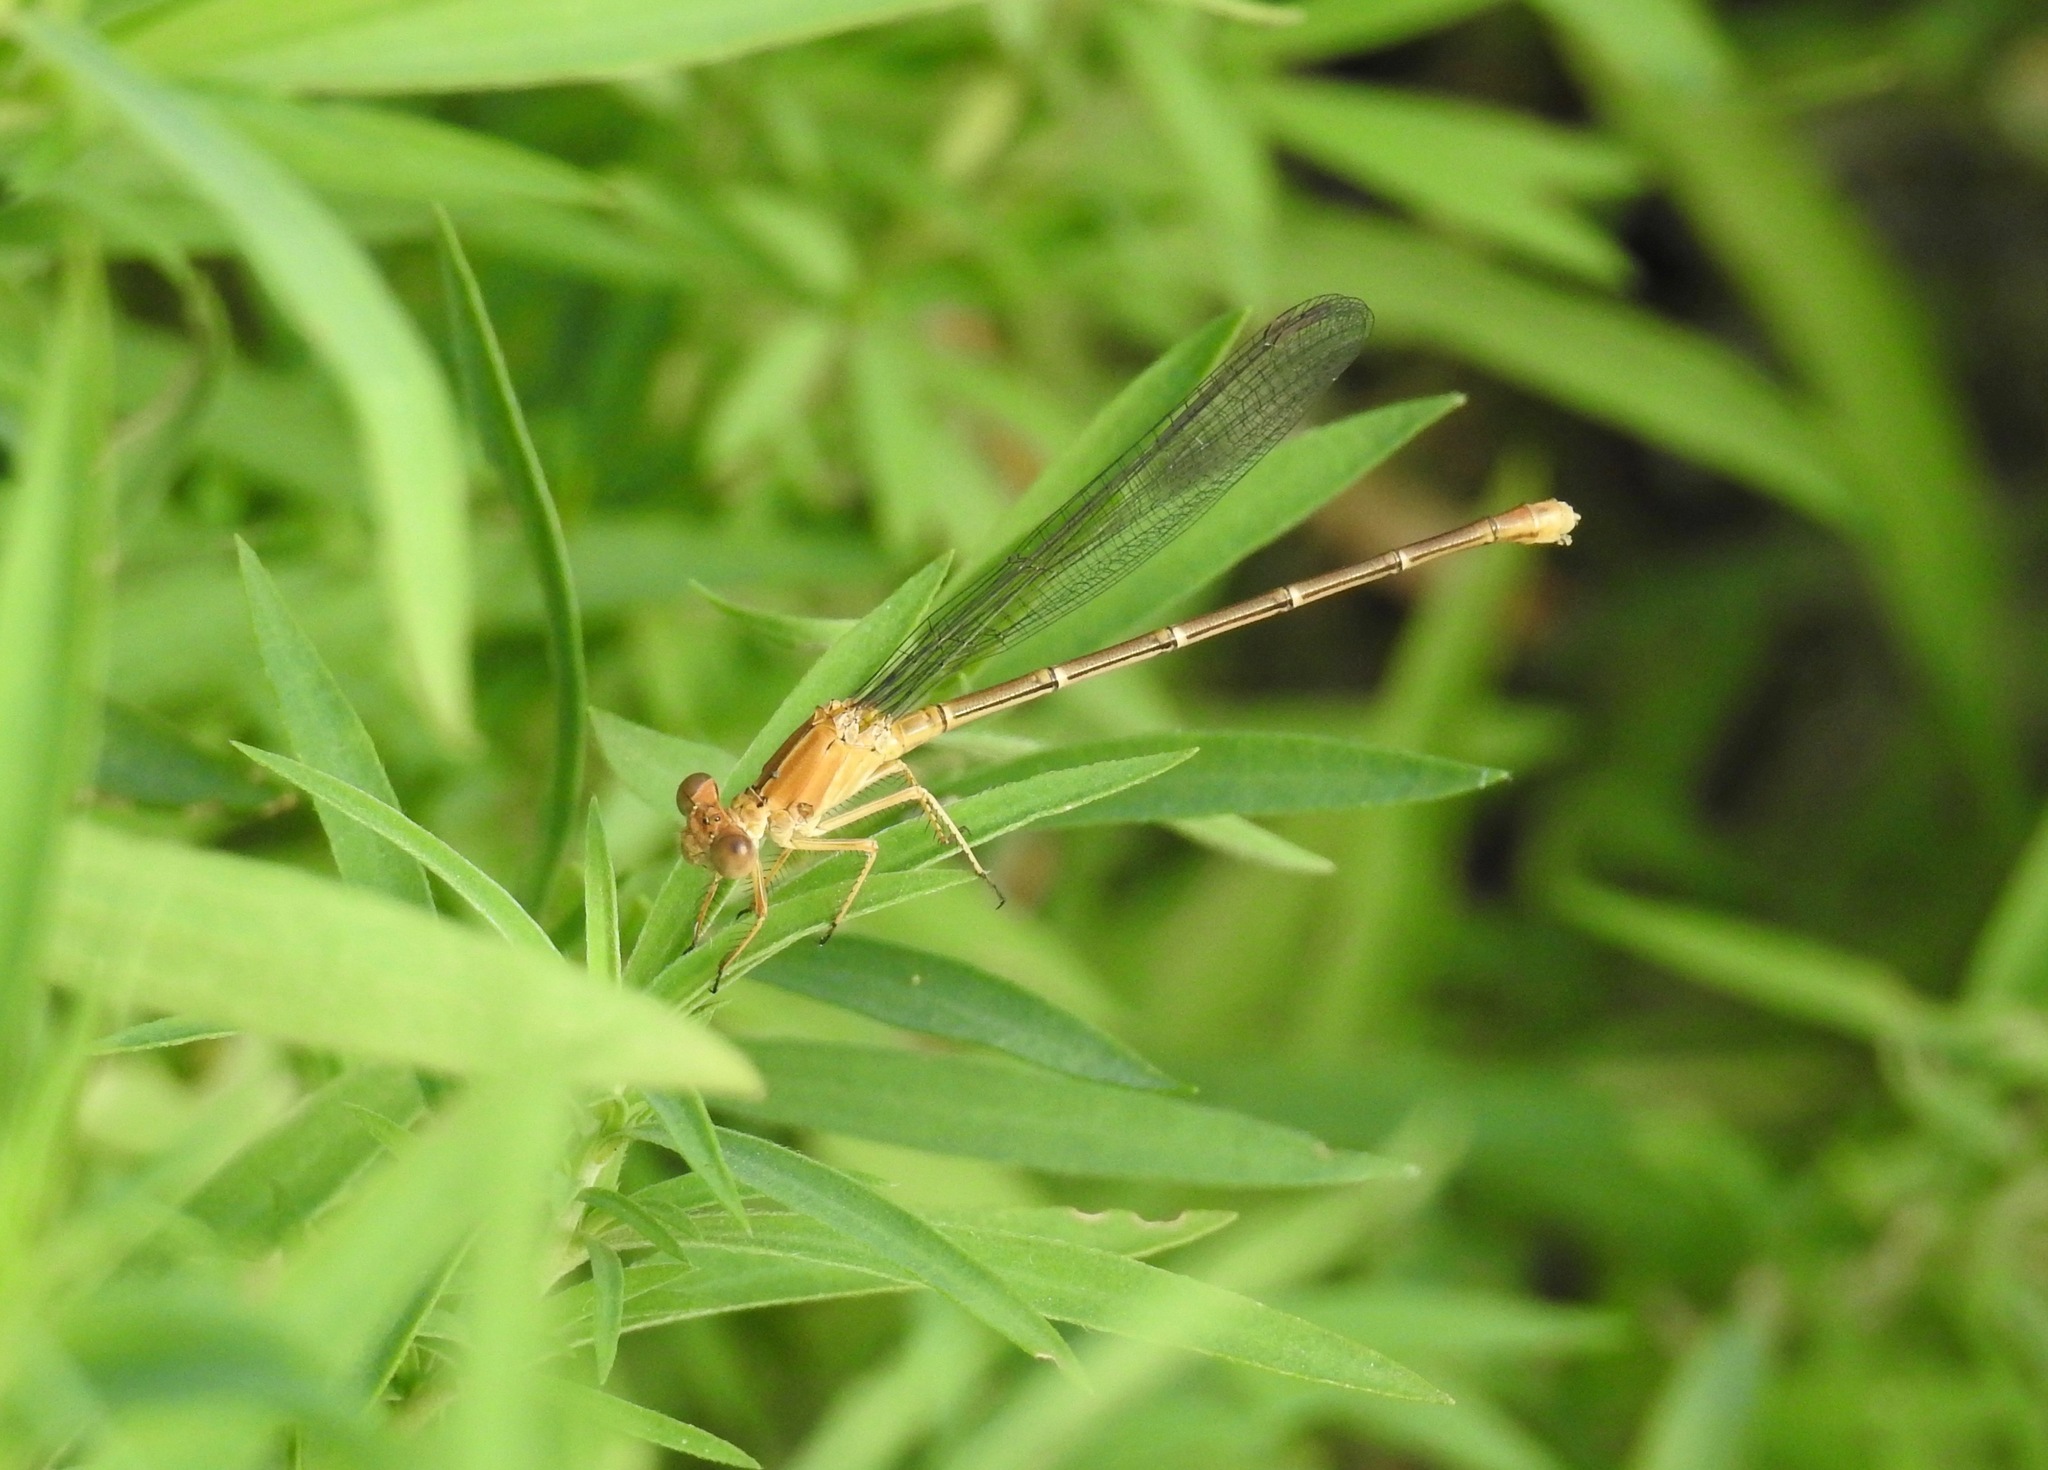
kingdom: Animalia
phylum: Arthropoda
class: Insecta
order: Odonata
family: Coenagrionidae
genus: Argia
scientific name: Argia moesta
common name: Powdered dancer
